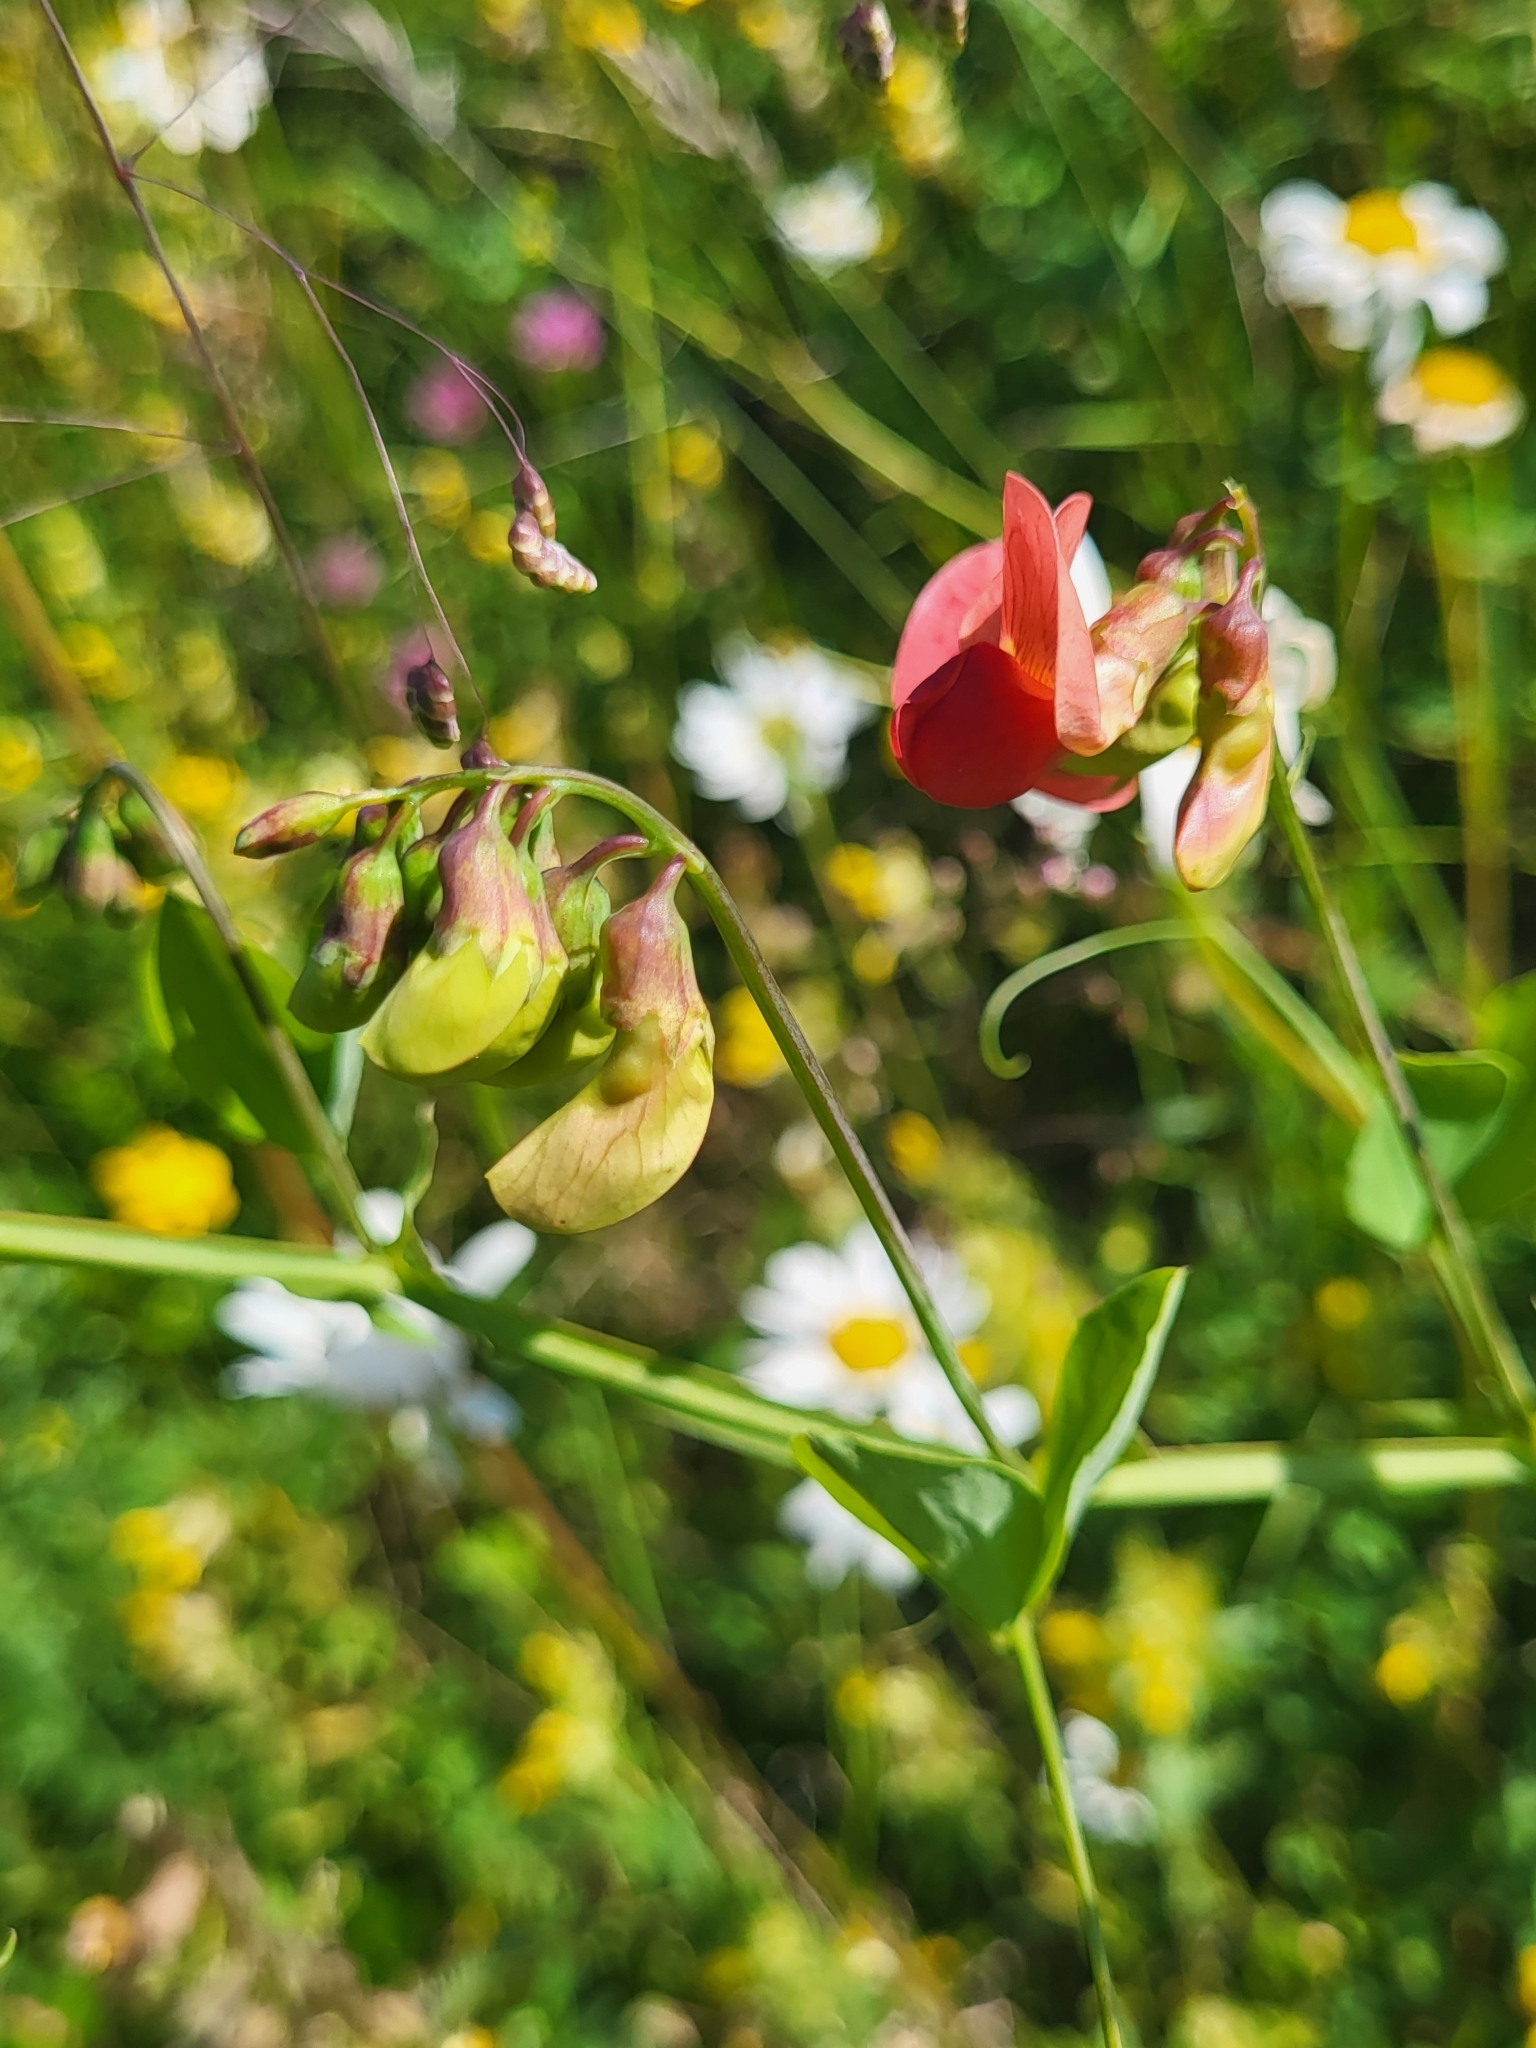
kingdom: Plantae
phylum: Tracheophyta
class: Magnoliopsida
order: Fabales
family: Fabaceae
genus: Lathyrus
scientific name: Lathyrus miniatus
